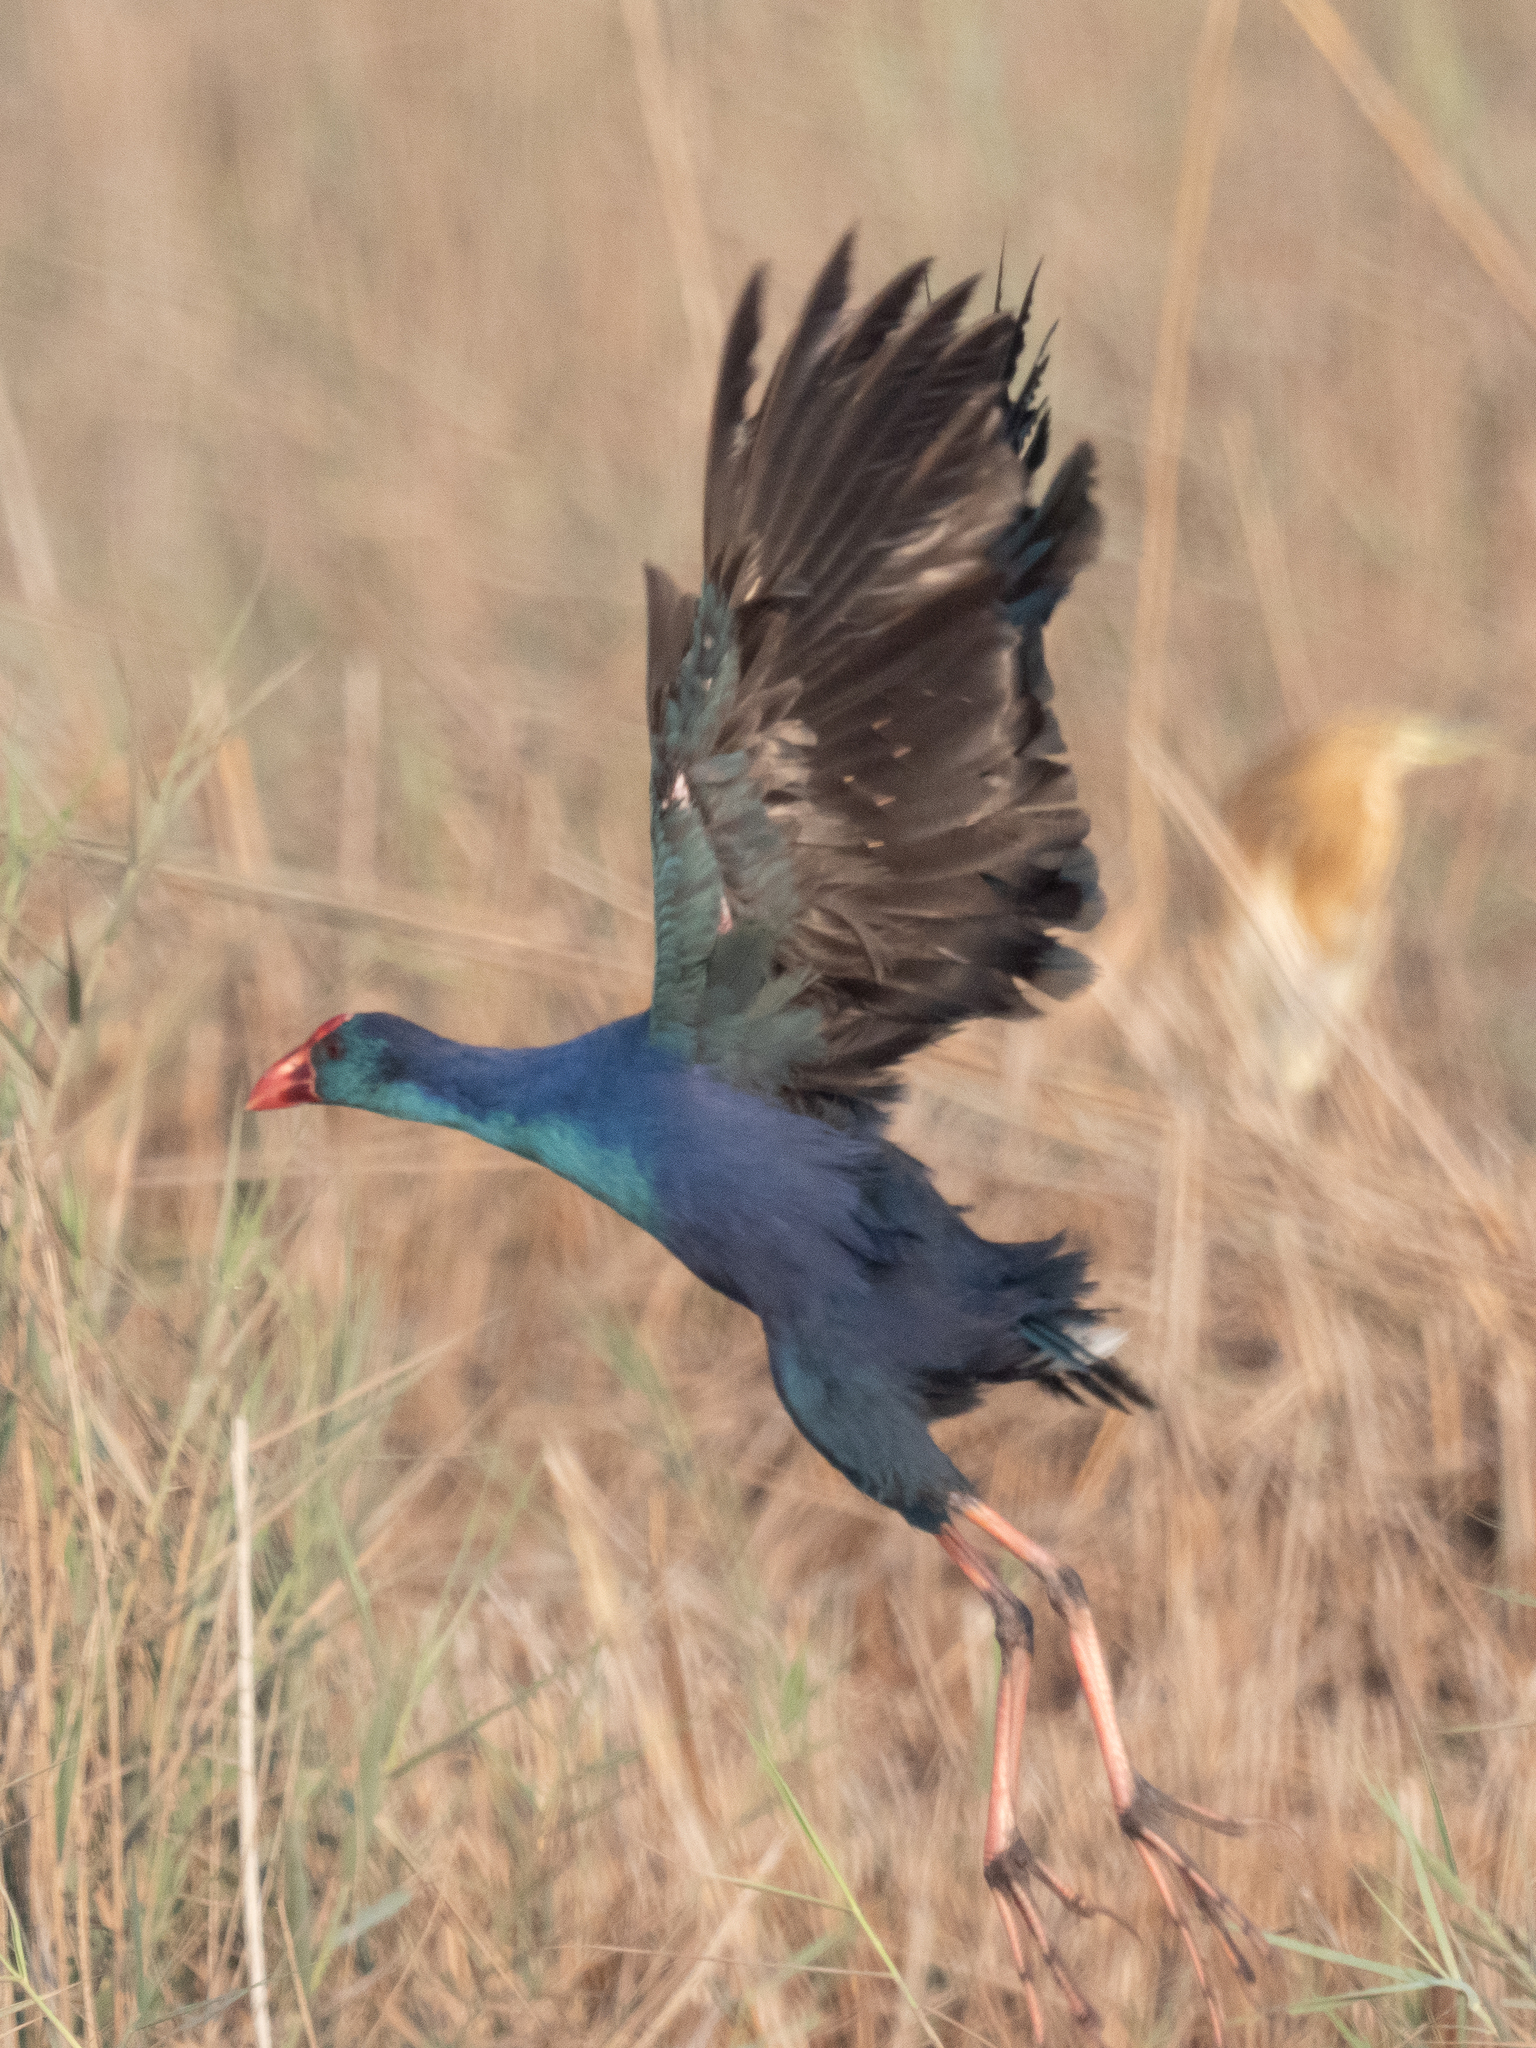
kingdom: Animalia
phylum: Chordata
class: Aves
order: Gruiformes
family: Rallidae
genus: Porphyrio
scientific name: Porphyrio porphyrio
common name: Purple swamphen
